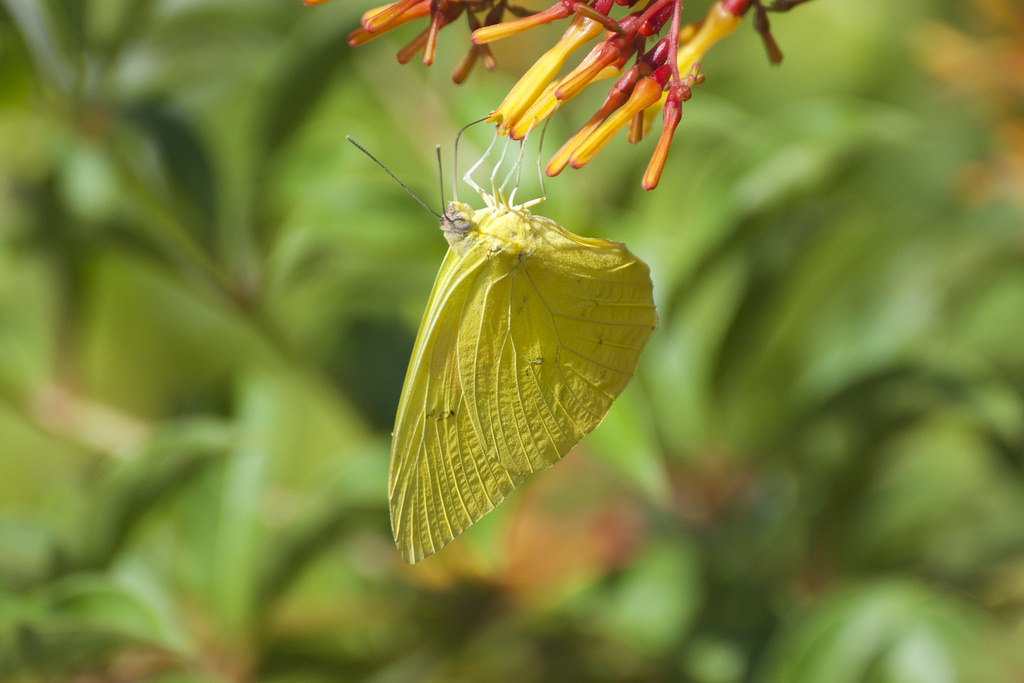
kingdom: Animalia
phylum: Arthropoda
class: Insecta
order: Lepidoptera
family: Pieridae
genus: Phoebis
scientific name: Phoebis agarithe
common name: Large orange sulphur
